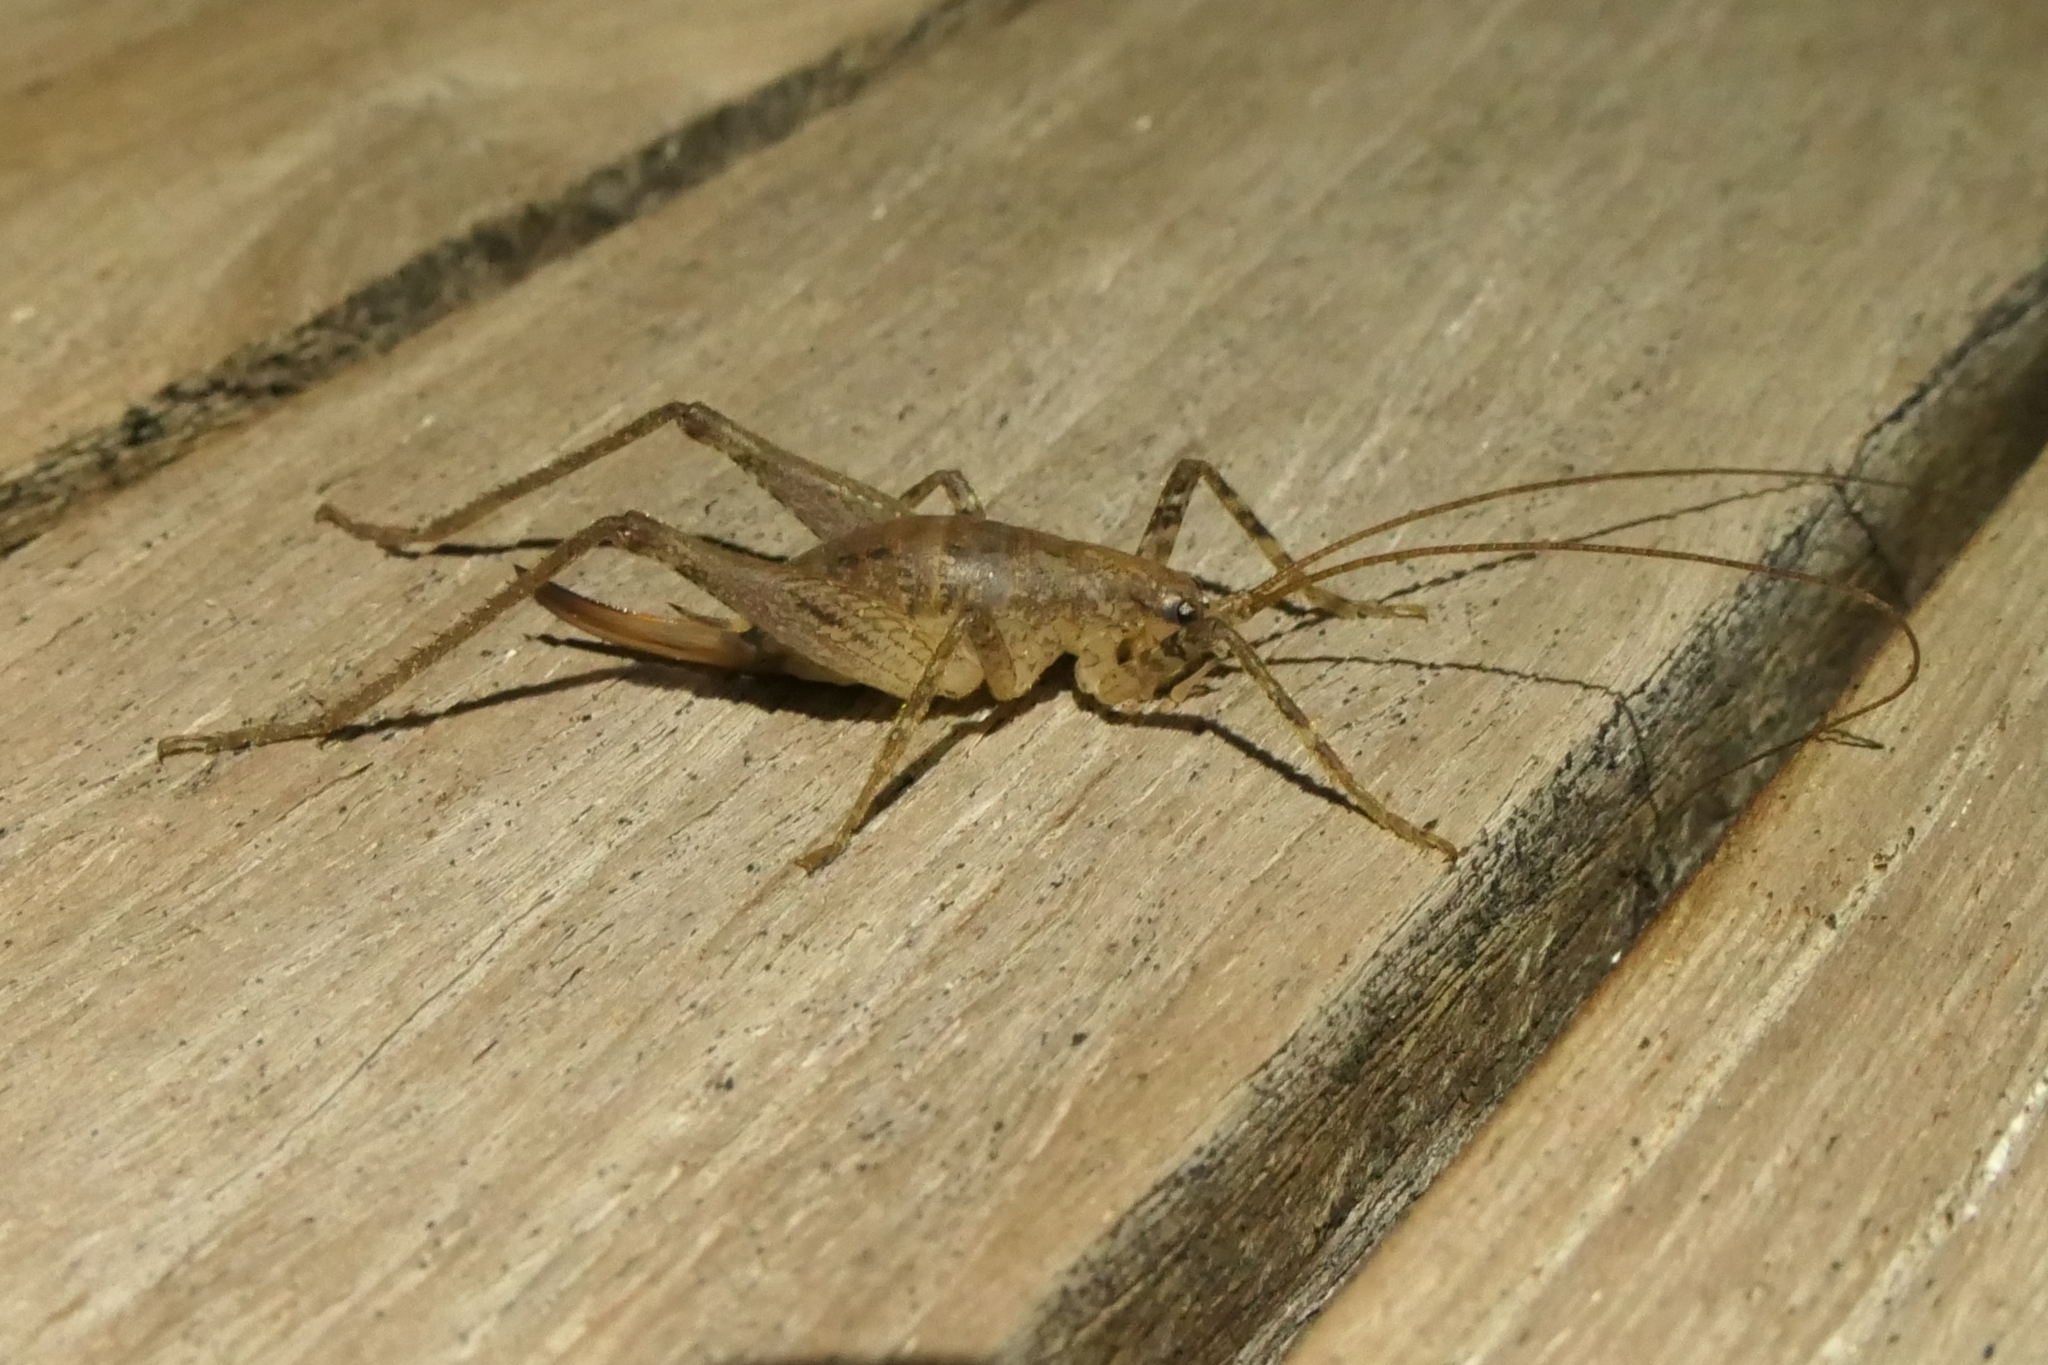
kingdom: Animalia
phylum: Arthropoda
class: Insecta
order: Orthoptera
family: Rhaphidophoridae
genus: Isoplectron
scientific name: Isoplectron armatum
